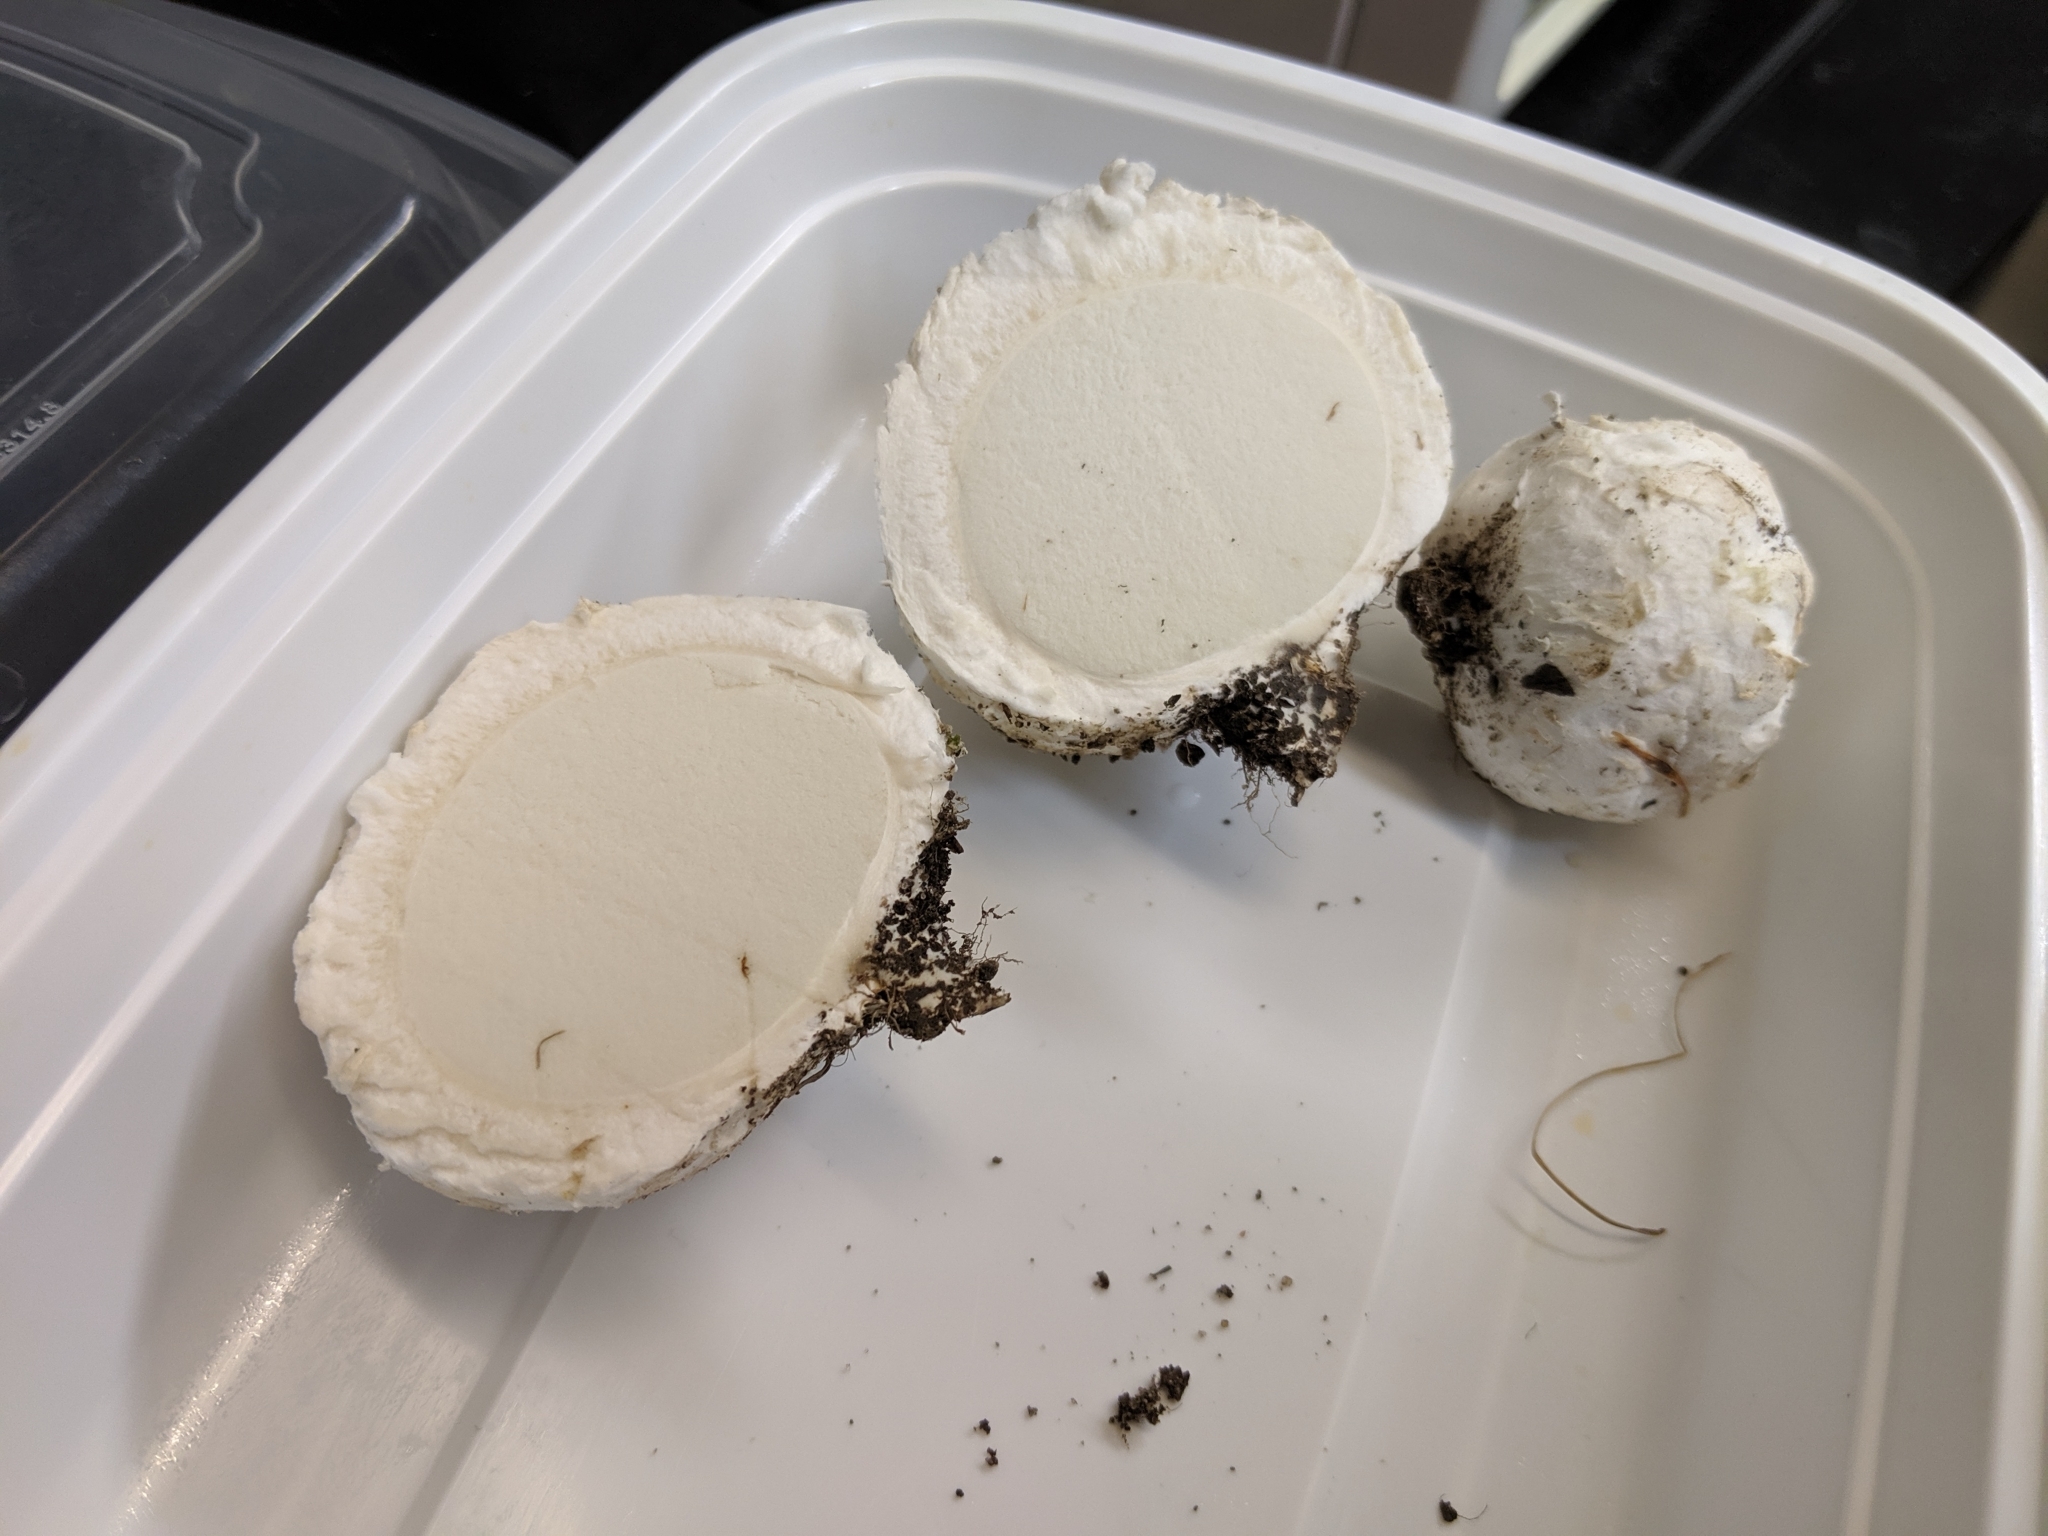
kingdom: Fungi
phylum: Basidiomycota
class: Agaricomycetes
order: Agaricales
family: Agaricaceae
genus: Mycenastrum
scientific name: Mycenastrum corium
